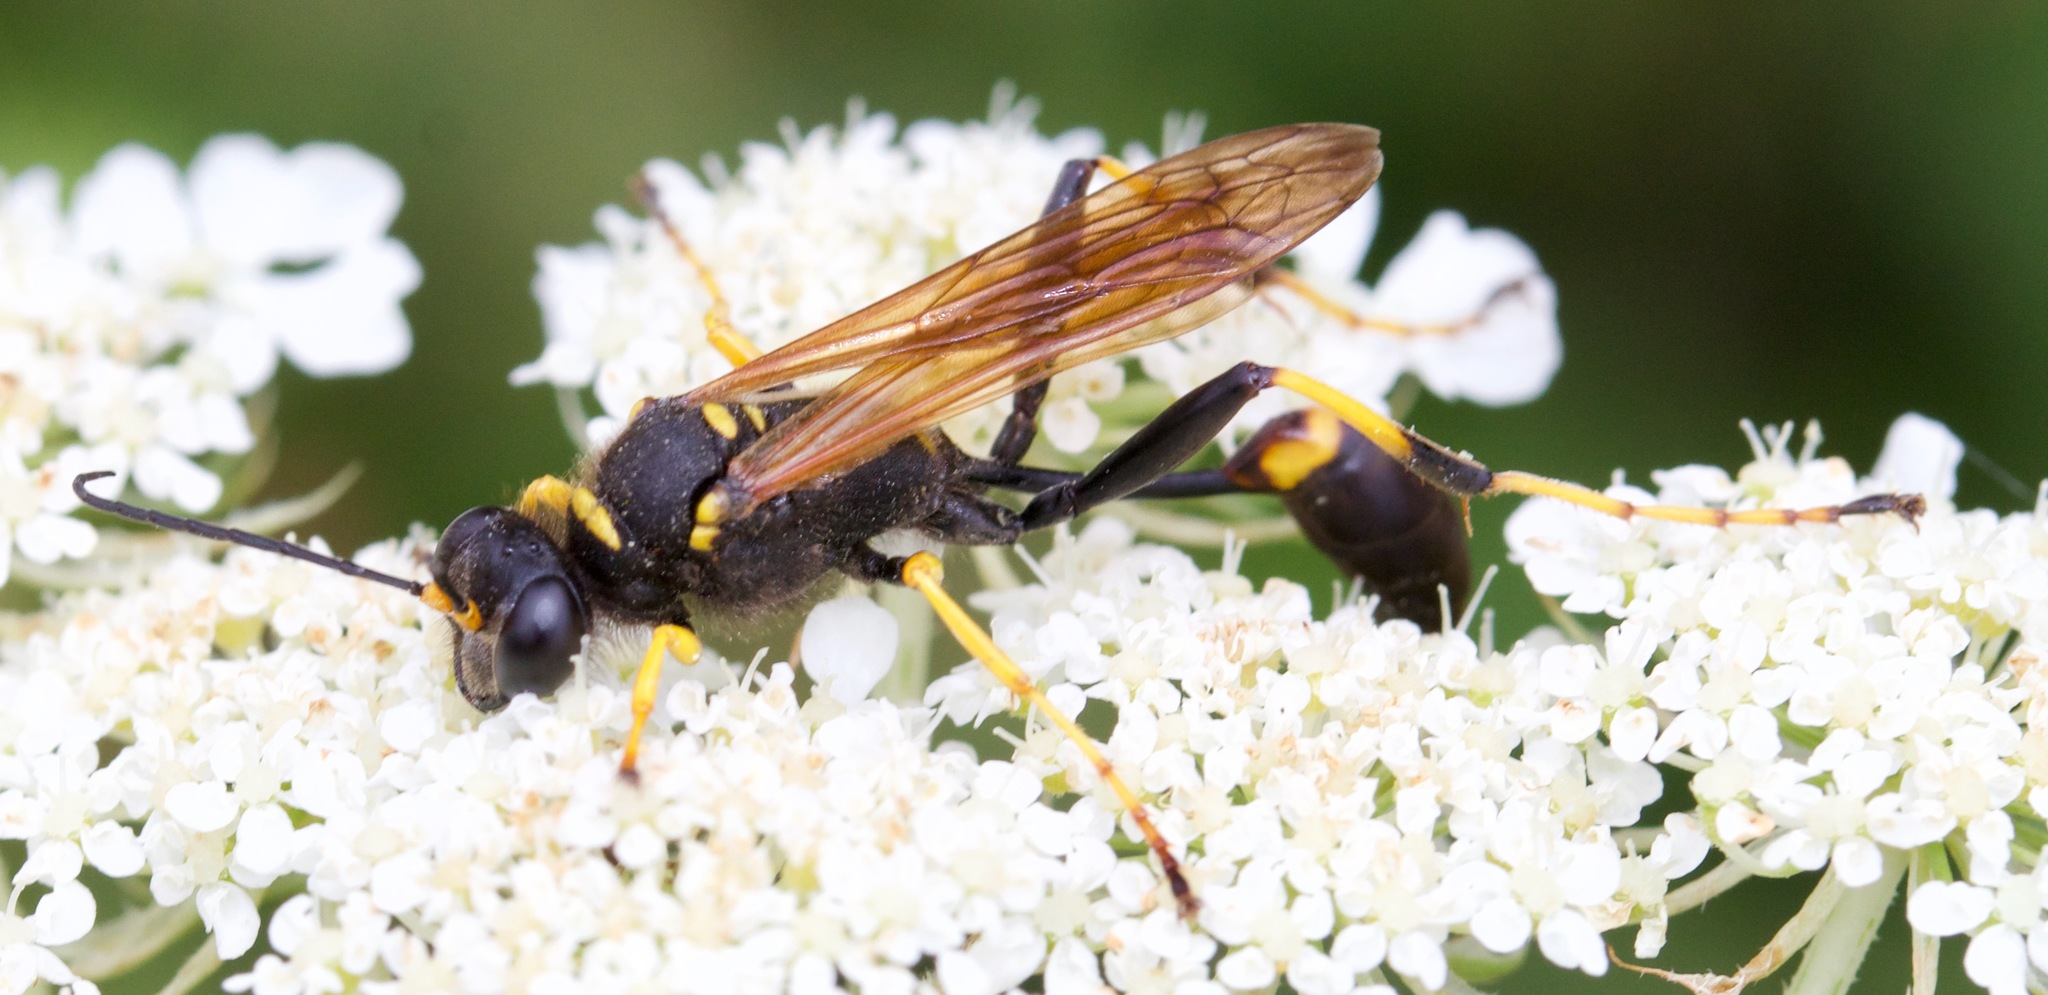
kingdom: Animalia
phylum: Arthropoda
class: Insecta
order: Hymenoptera
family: Sphecidae
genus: Sceliphron
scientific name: Sceliphron caementarium
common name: Mud dauber
